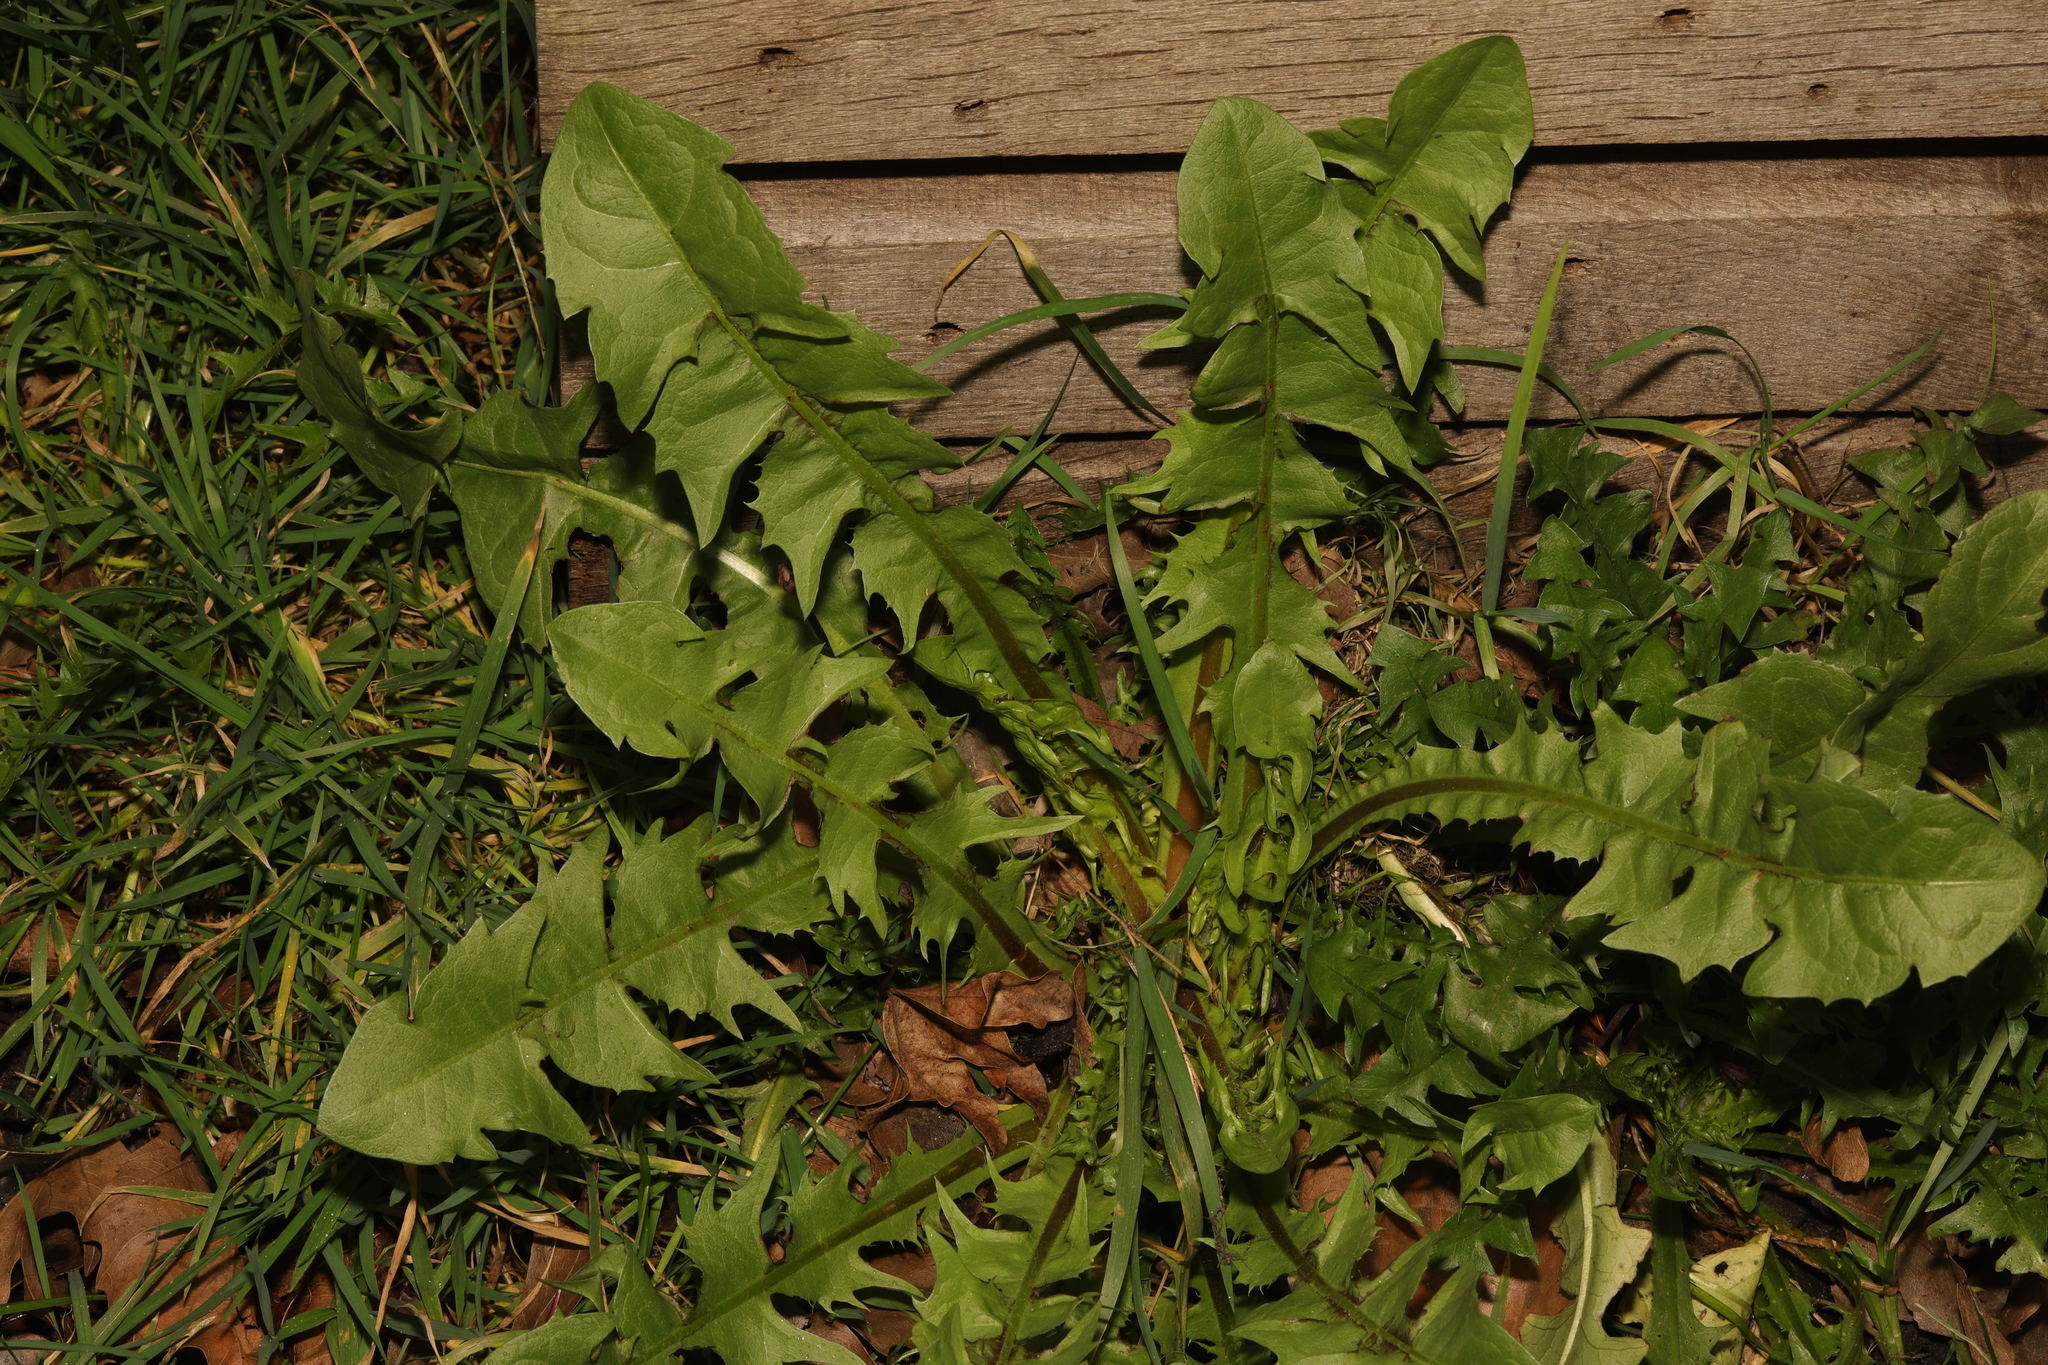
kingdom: Plantae
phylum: Tracheophyta
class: Magnoliopsida
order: Asterales
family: Asteraceae
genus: Taraxacum
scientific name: Taraxacum officinale
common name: Common dandelion
